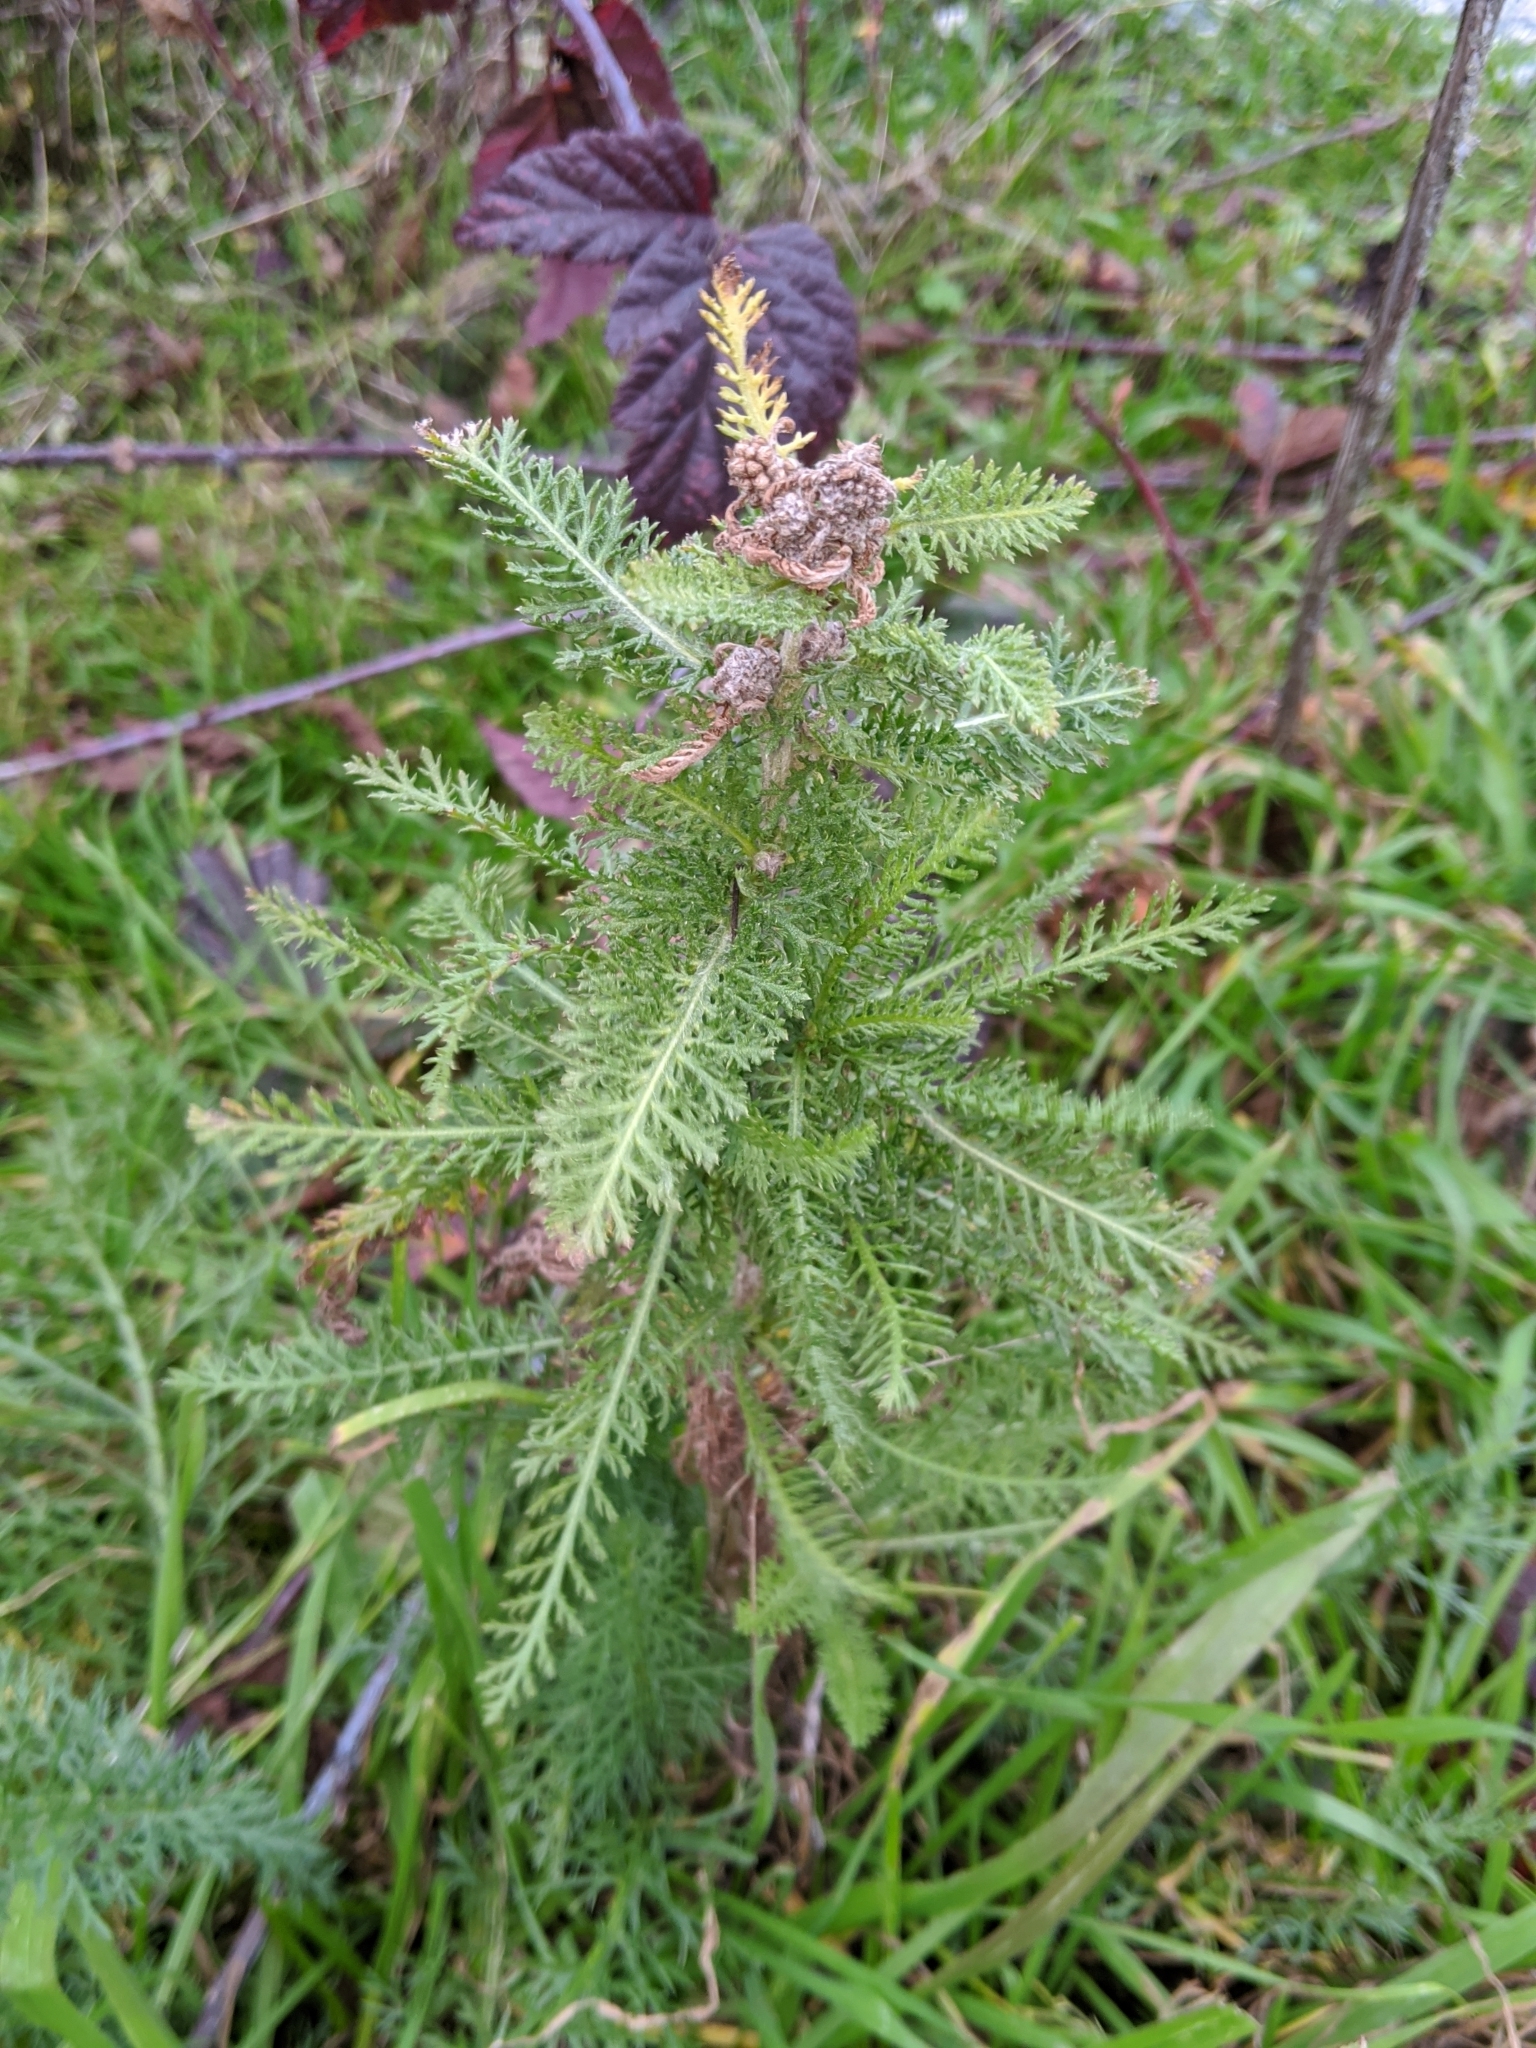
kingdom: Plantae
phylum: Tracheophyta
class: Magnoliopsida
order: Asterales
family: Asteraceae
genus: Achillea
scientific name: Achillea millefolium
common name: Yarrow
